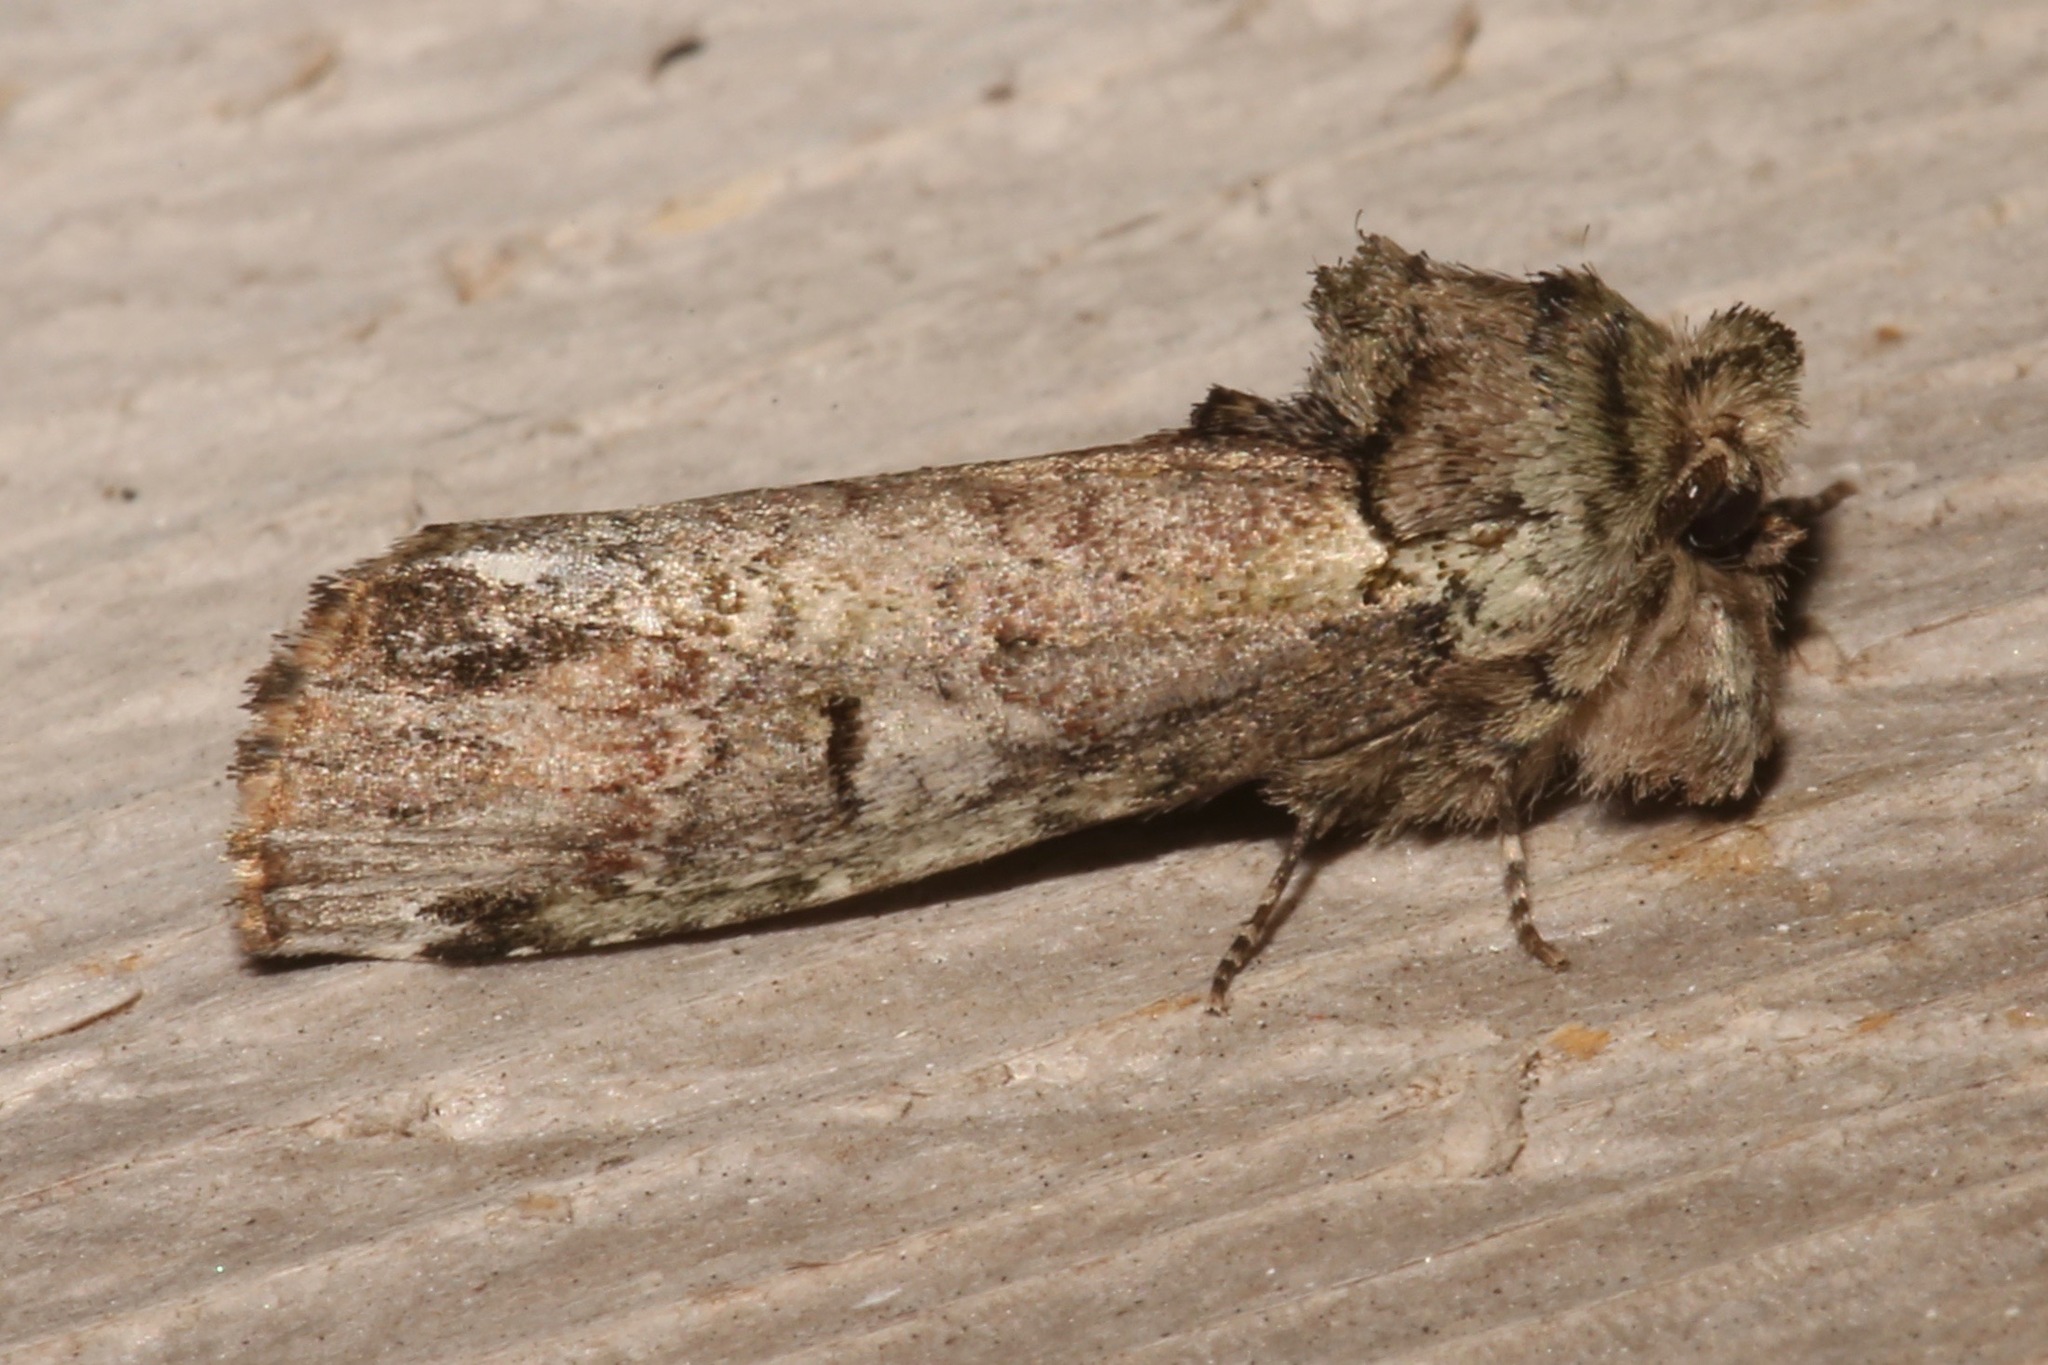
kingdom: Animalia
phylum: Arthropoda
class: Insecta
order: Lepidoptera
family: Notodontidae
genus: Schizura
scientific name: Schizura
